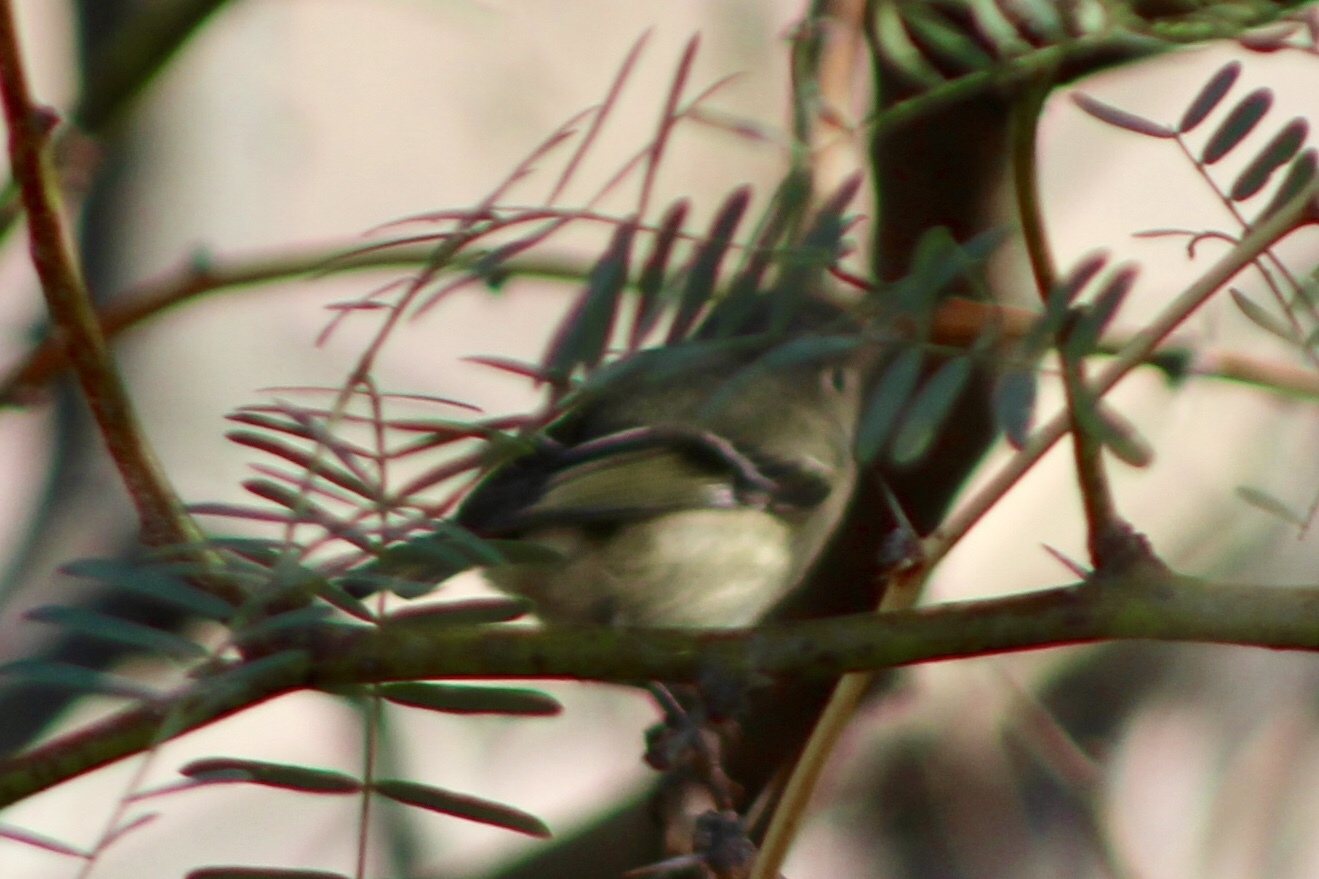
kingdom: Animalia
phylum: Chordata
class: Aves
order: Passeriformes
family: Regulidae
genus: Regulus
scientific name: Regulus calendula
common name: Ruby-crowned kinglet
